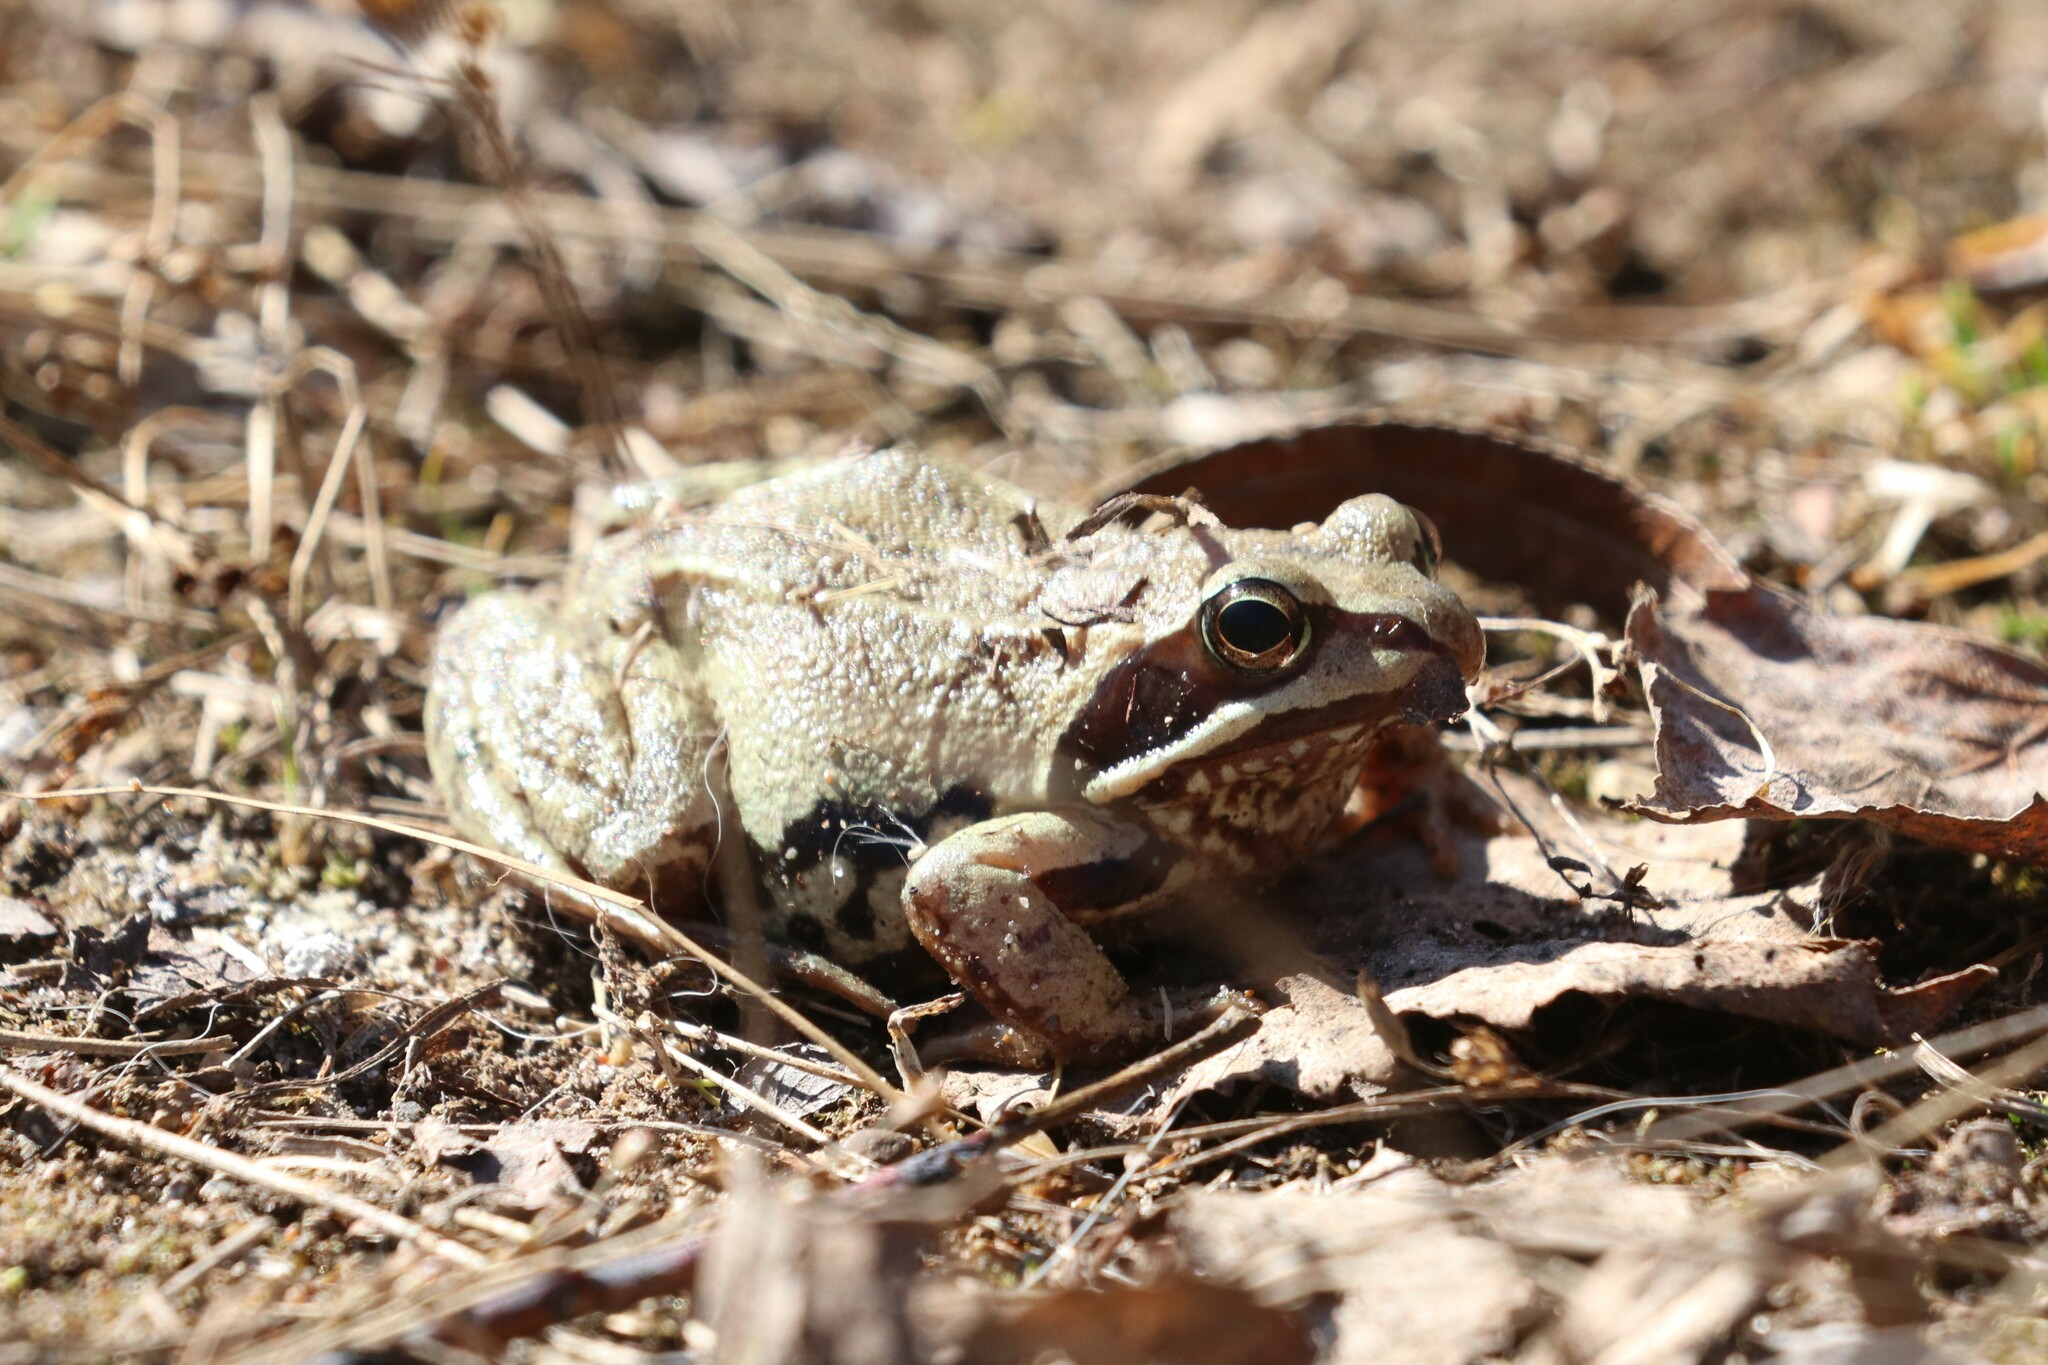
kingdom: Animalia
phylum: Chordata
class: Amphibia
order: Anura
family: Ranidae
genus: Rana
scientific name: Rana arvalis
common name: Moor frog
